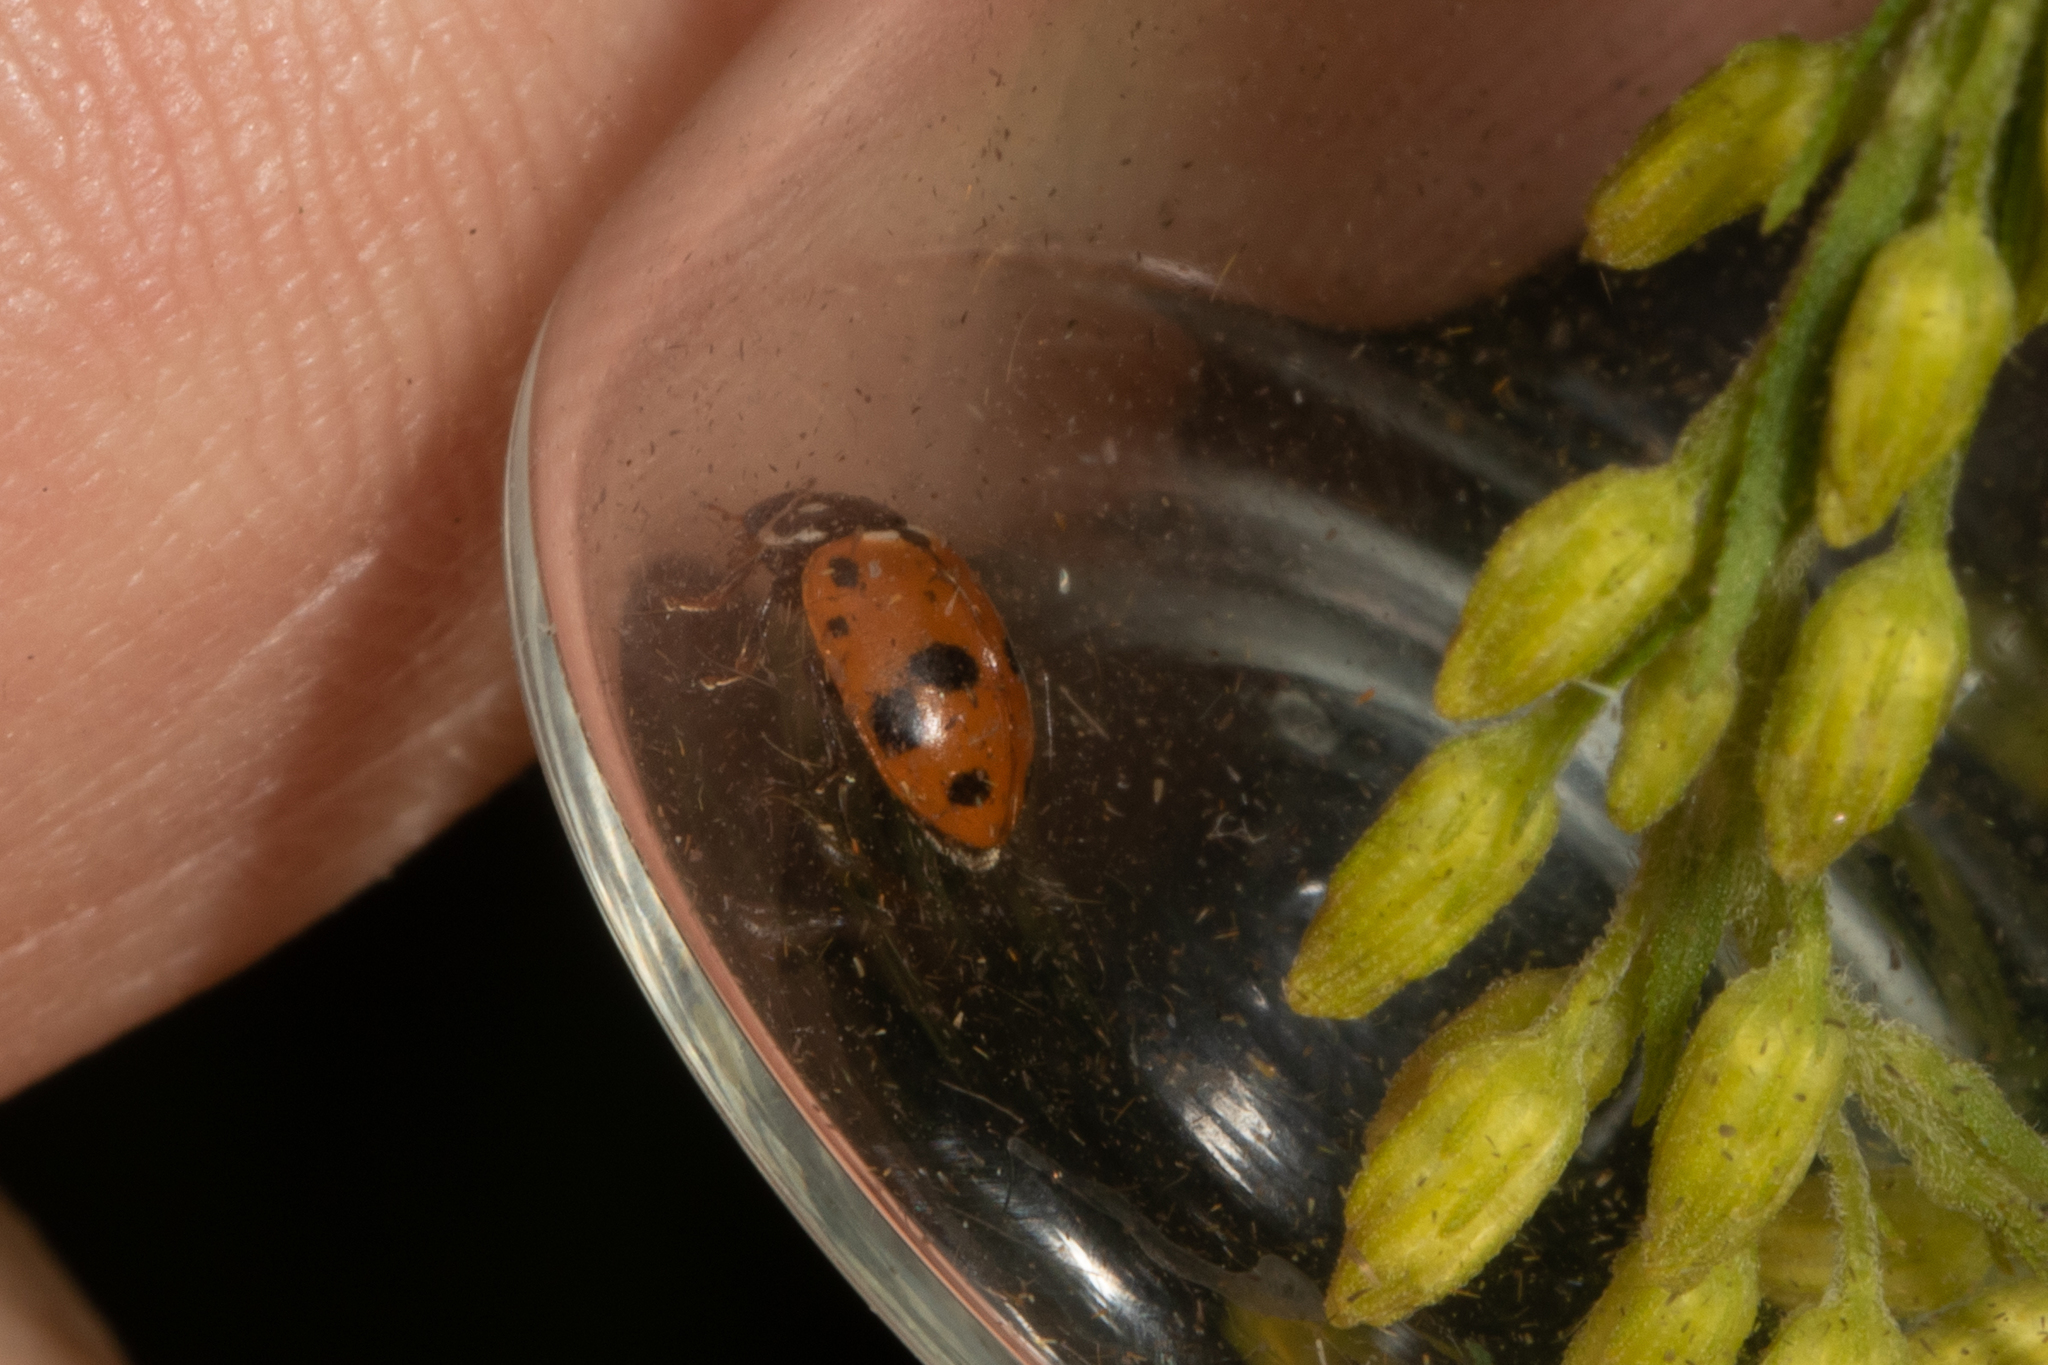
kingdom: Animalia
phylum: Arthropoda
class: Insecta
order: Coleoptera
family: Coccinellidae
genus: Hippodamia
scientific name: Hippodamia variegata
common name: Ladybird beetle
